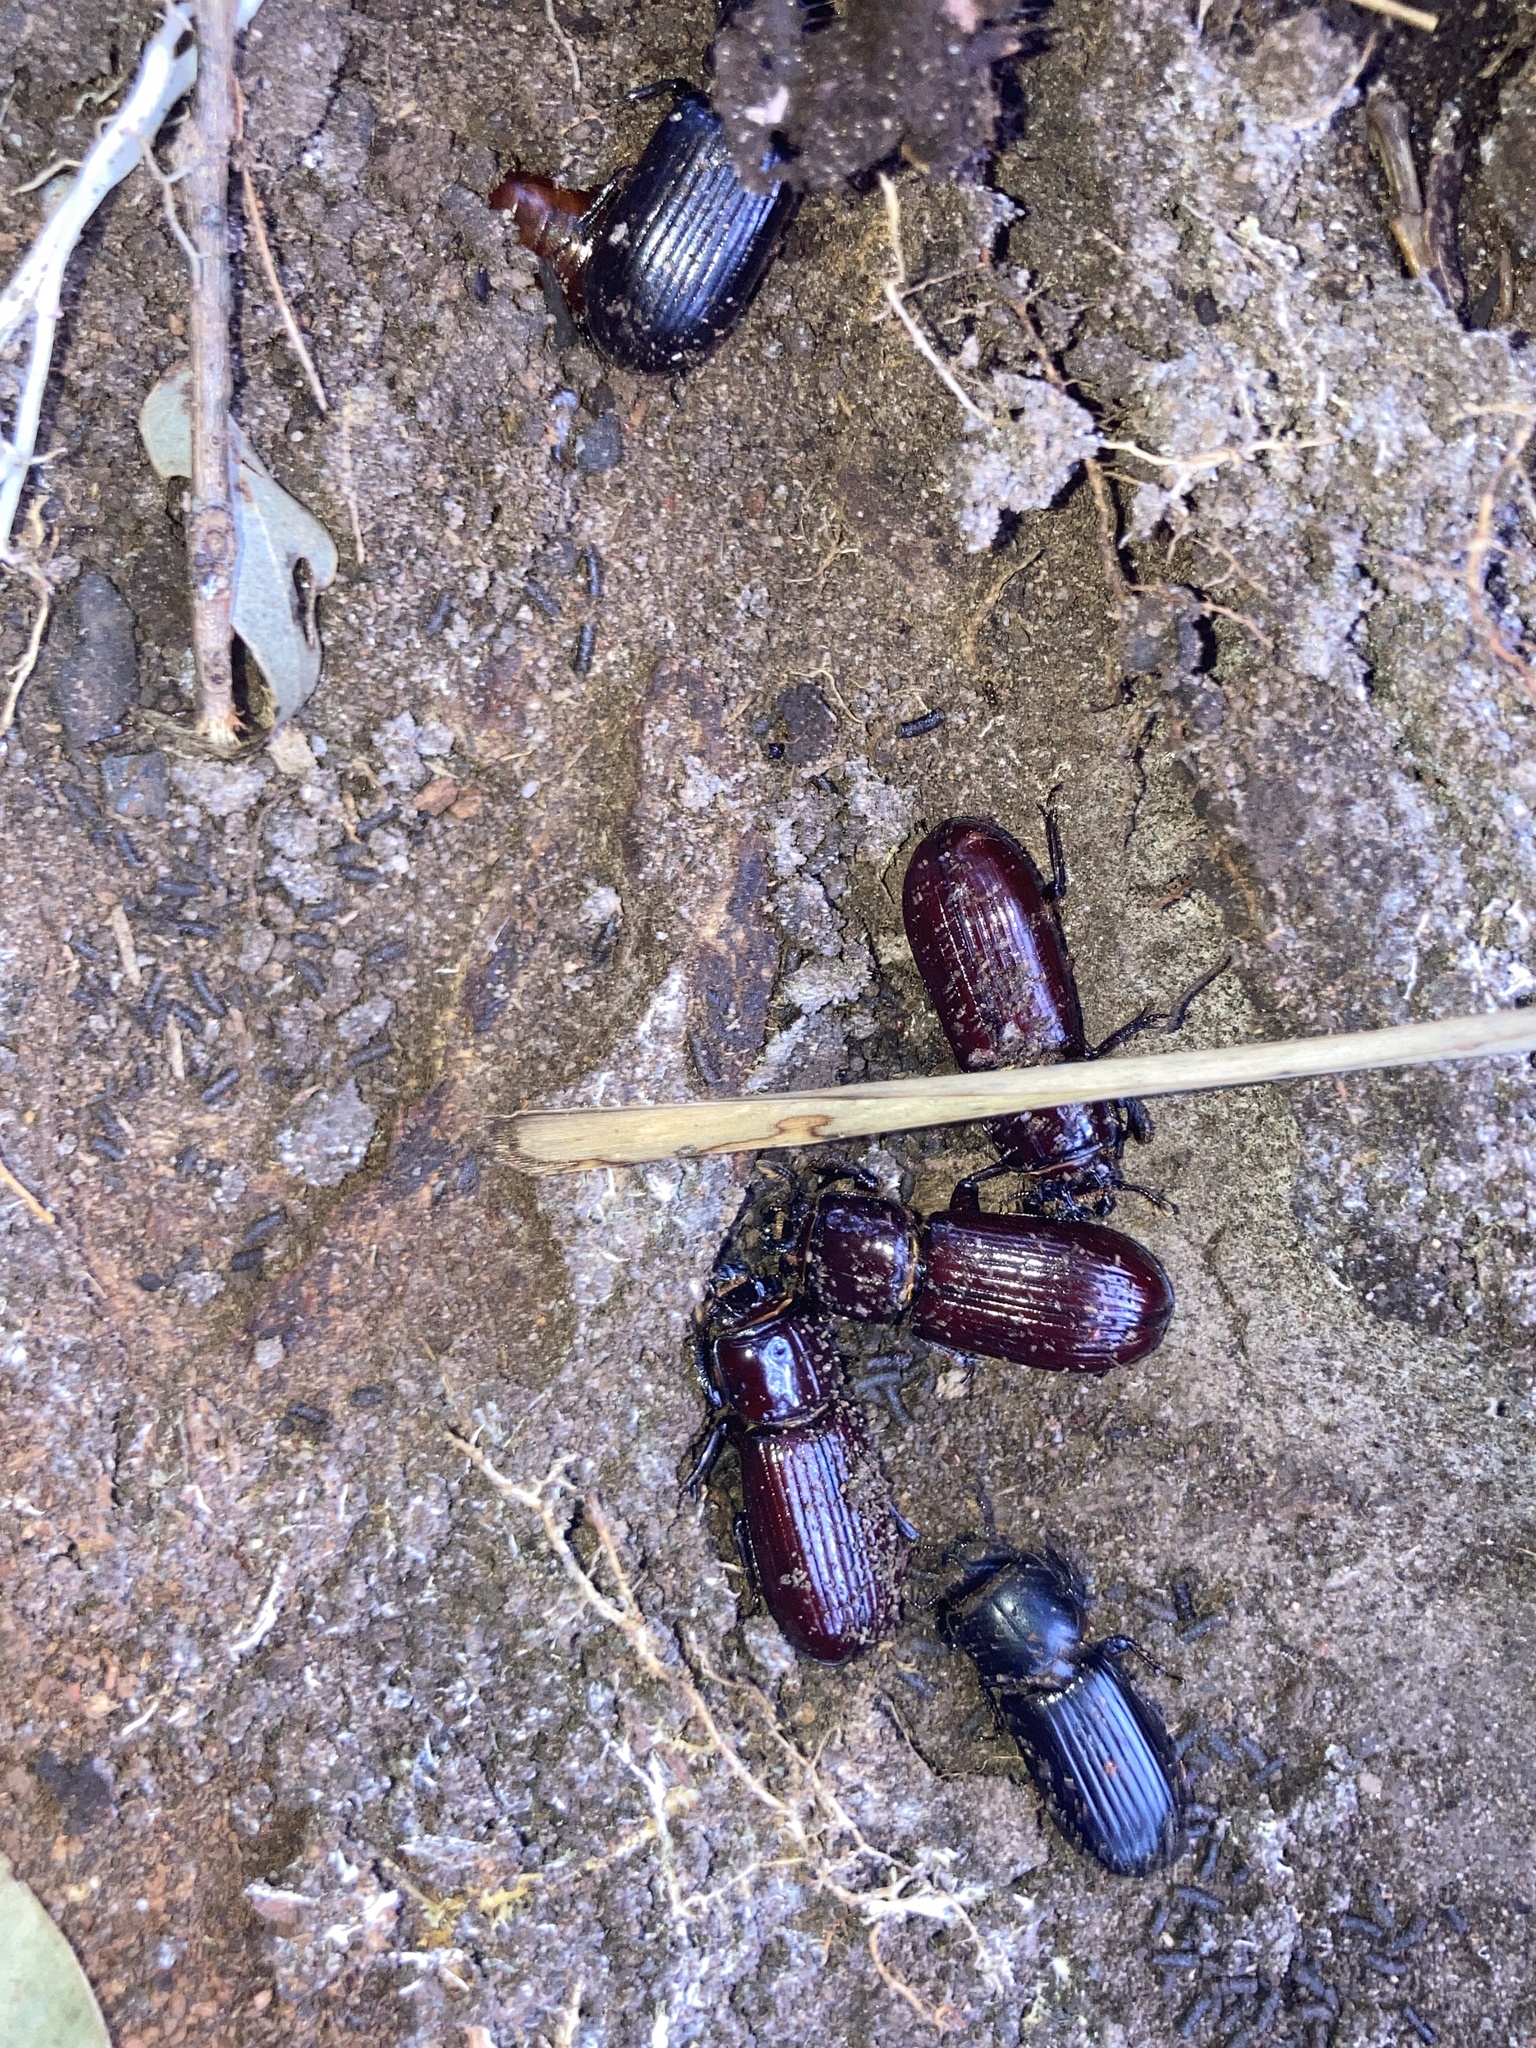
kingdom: Animalia
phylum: Arthropoda
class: Insecta
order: Coleoptera
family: Passalidae
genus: Aulacocyclus
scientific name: Aulacocyclus edentulus
